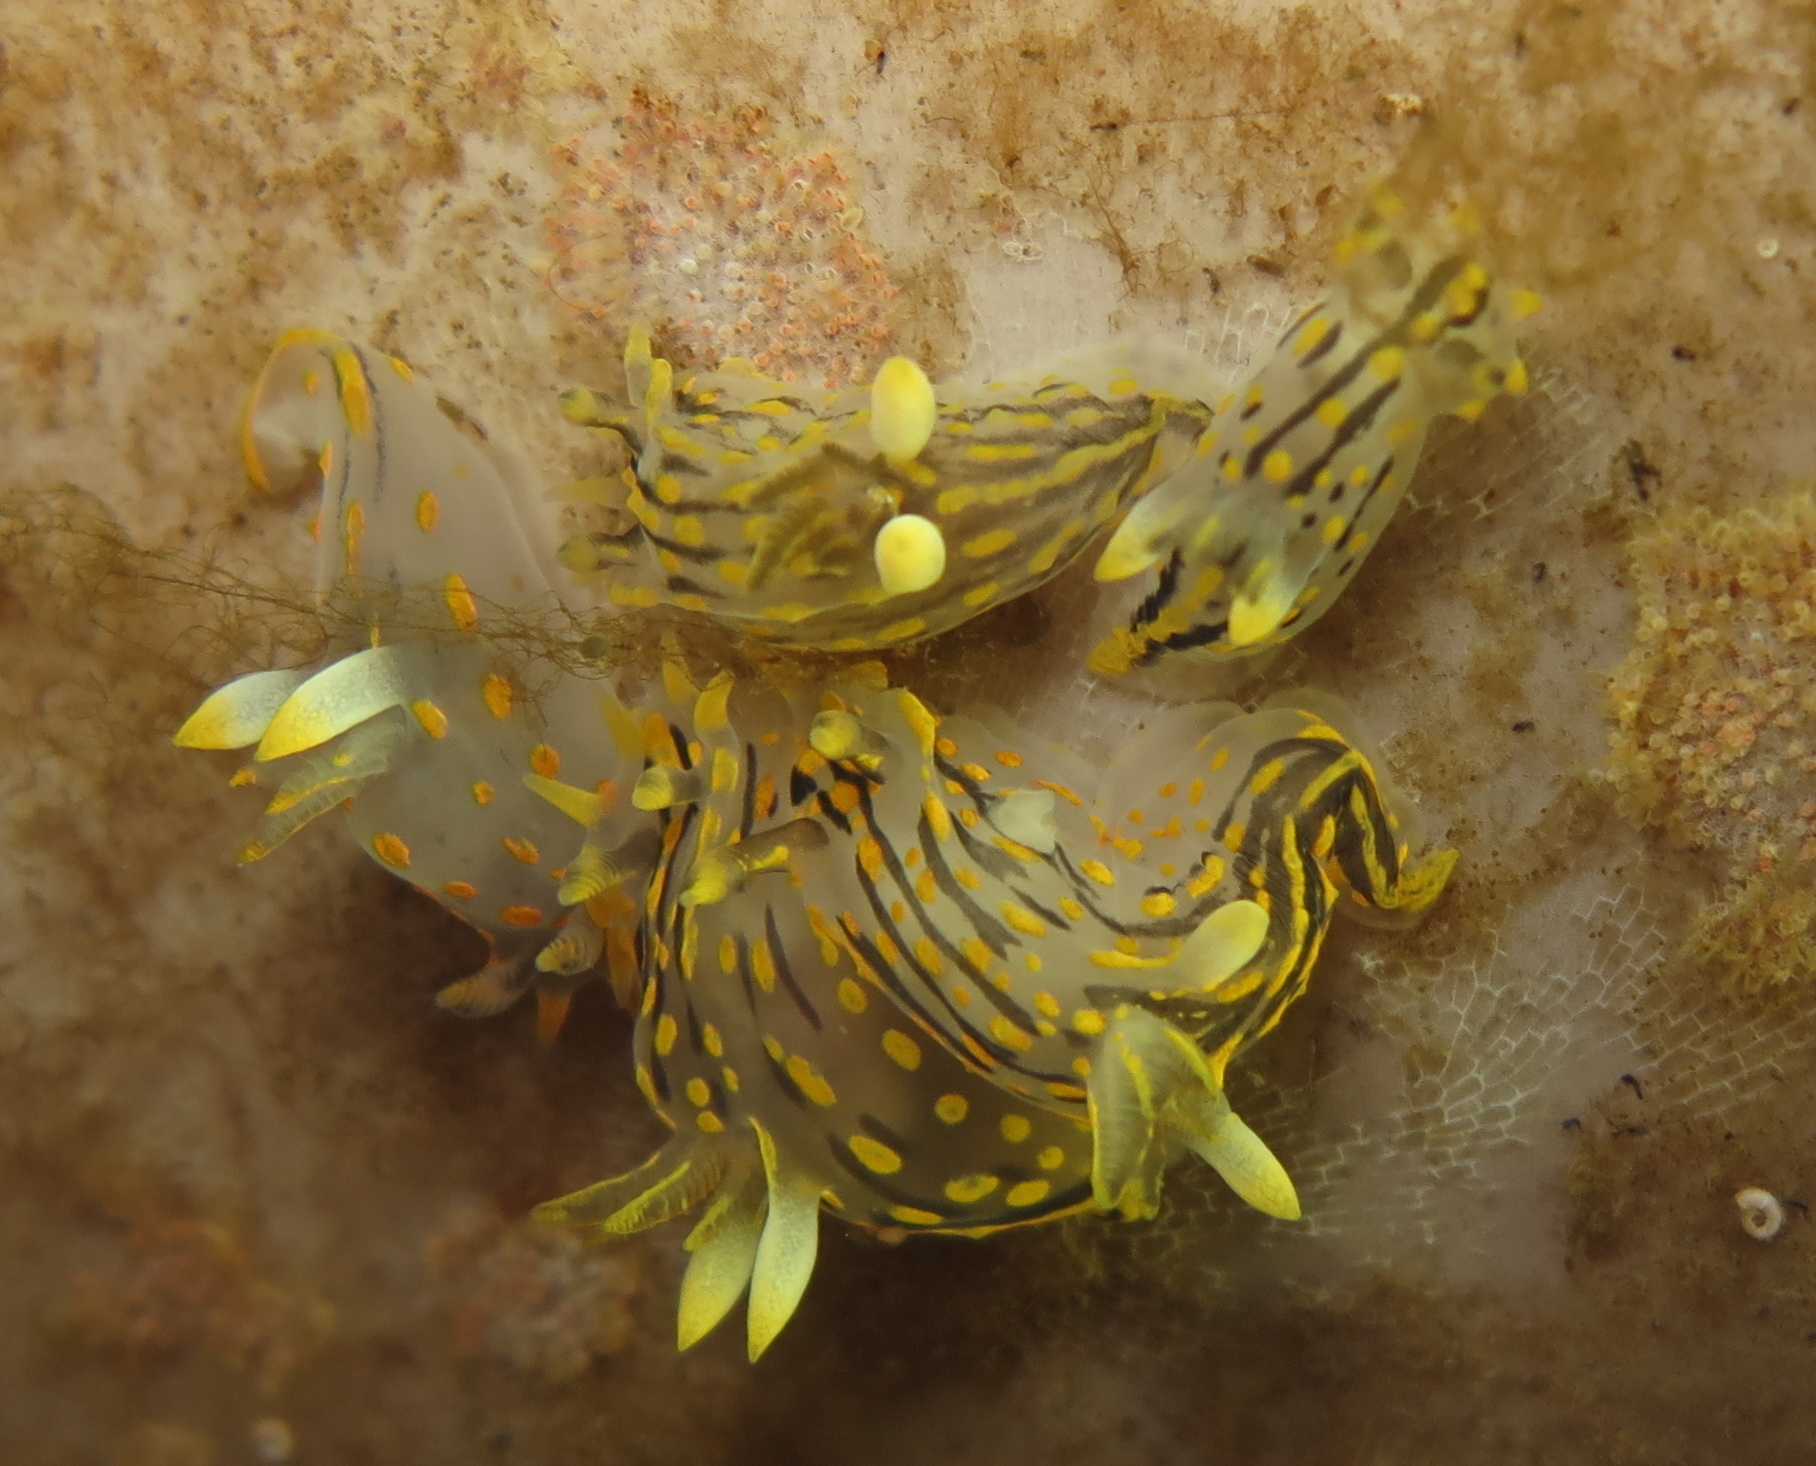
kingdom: Animalia
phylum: Mollusca
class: Gastropoda
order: Nudibranchia
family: Polyceridae
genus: Polycera
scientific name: Polycera quadrilineata
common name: Four-striped polycera
